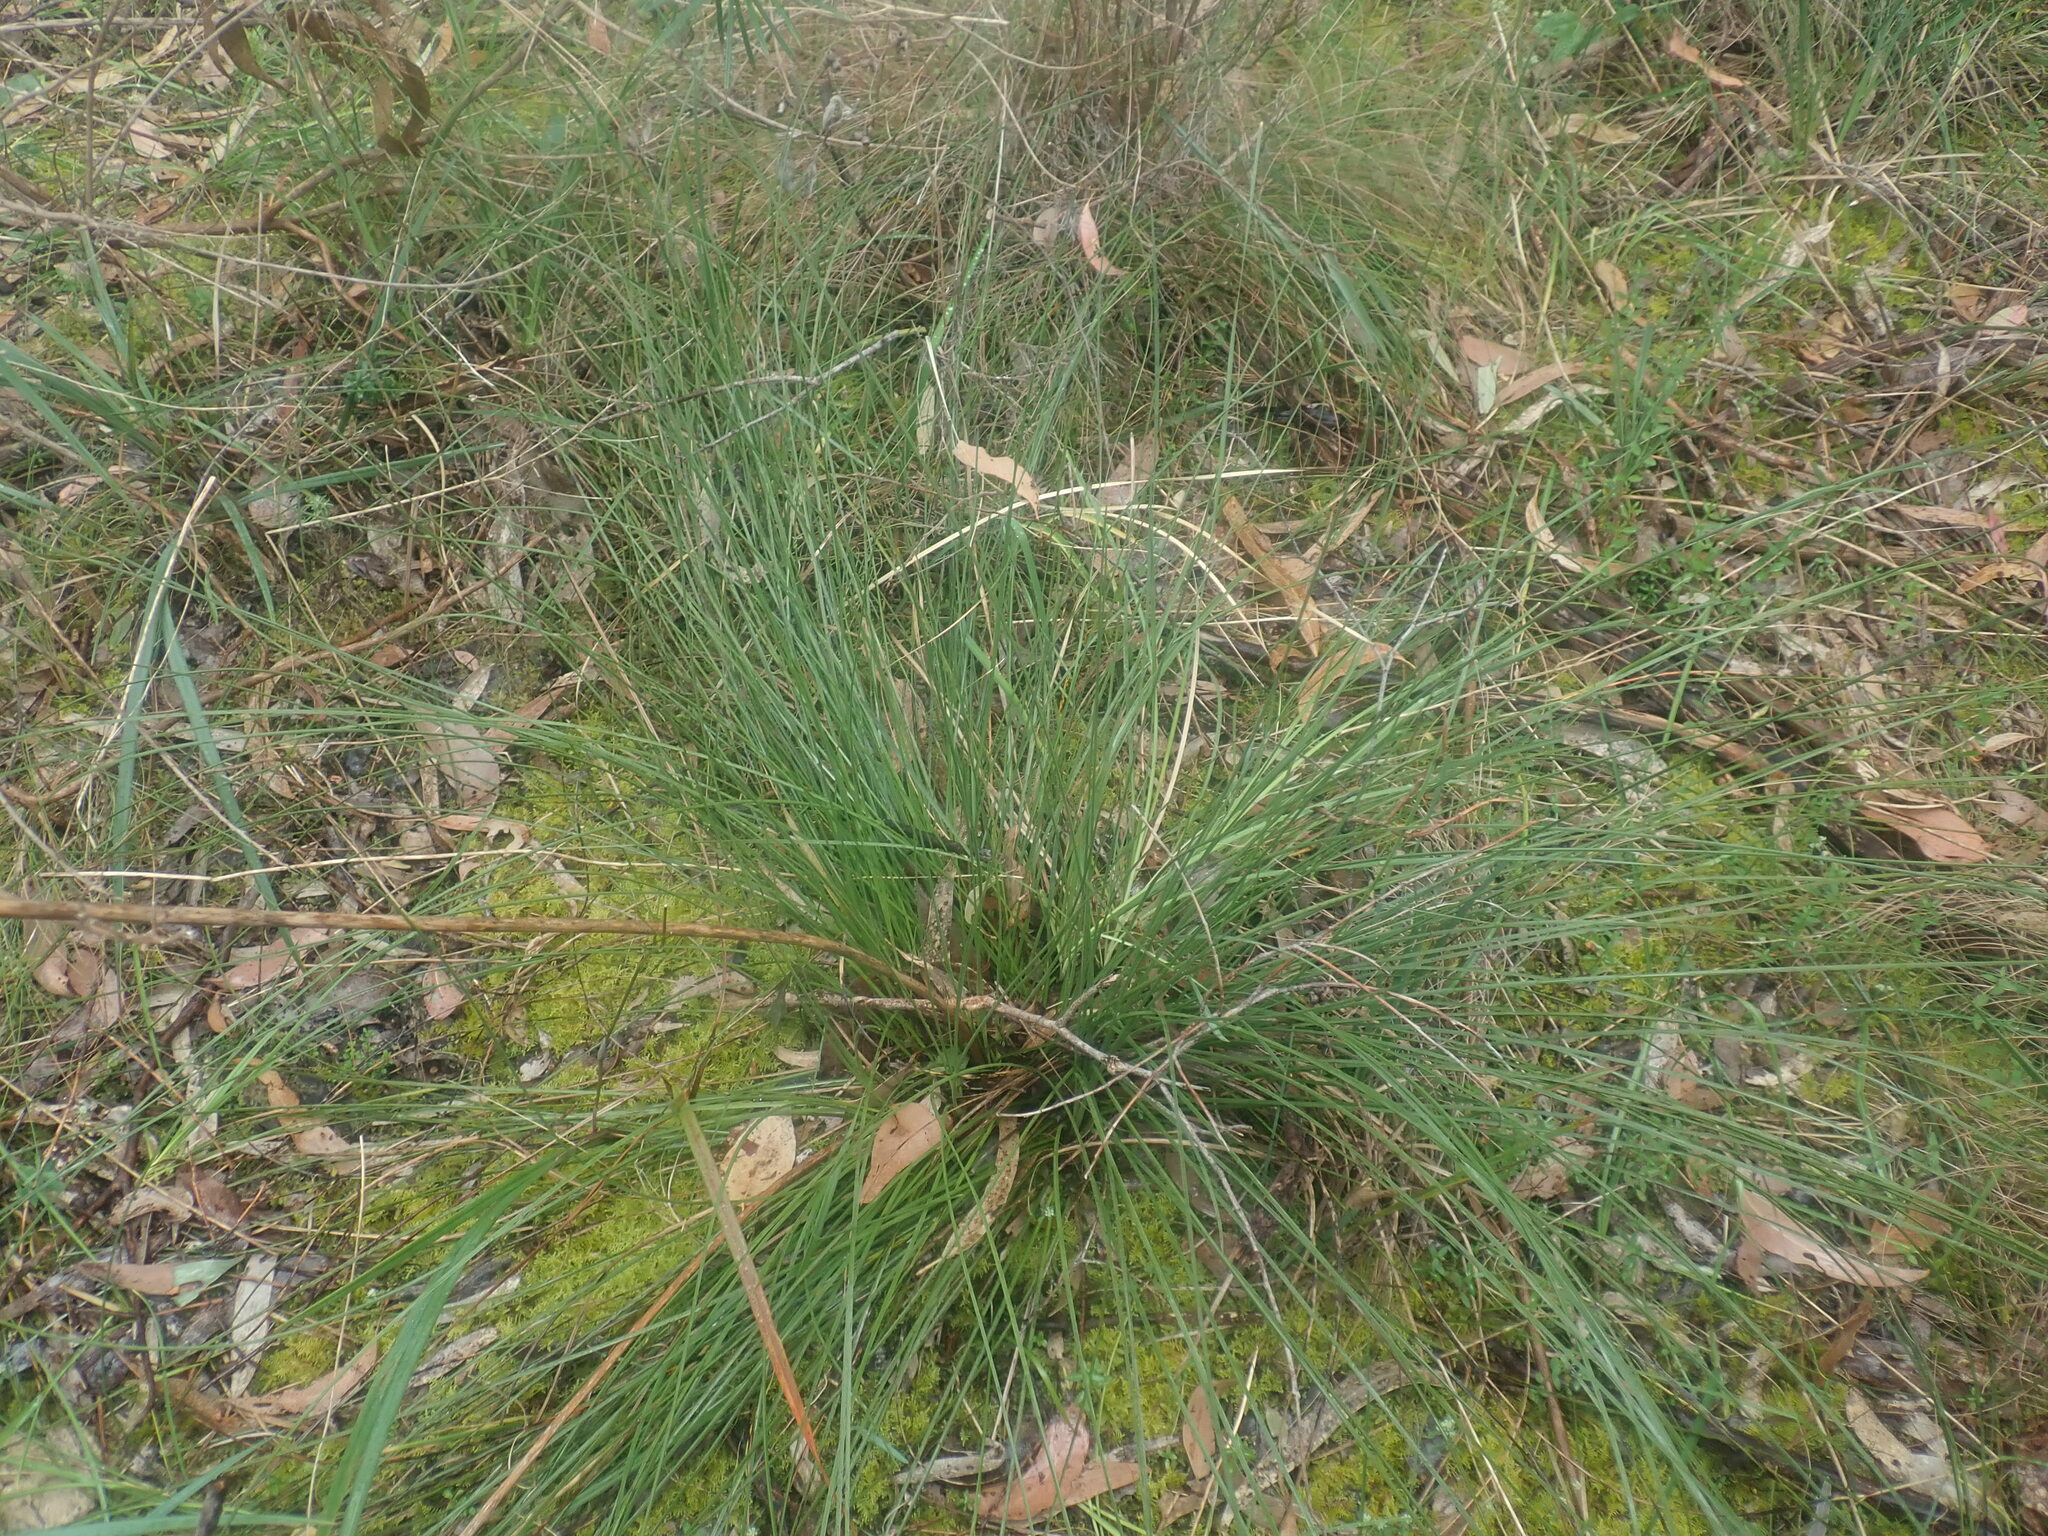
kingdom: Plantae
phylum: Tracheophyta
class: Liliopsida
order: Asparagales
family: Asphodelaceae
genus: Xanthorrhoea
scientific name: Xanthorrhoea minor
